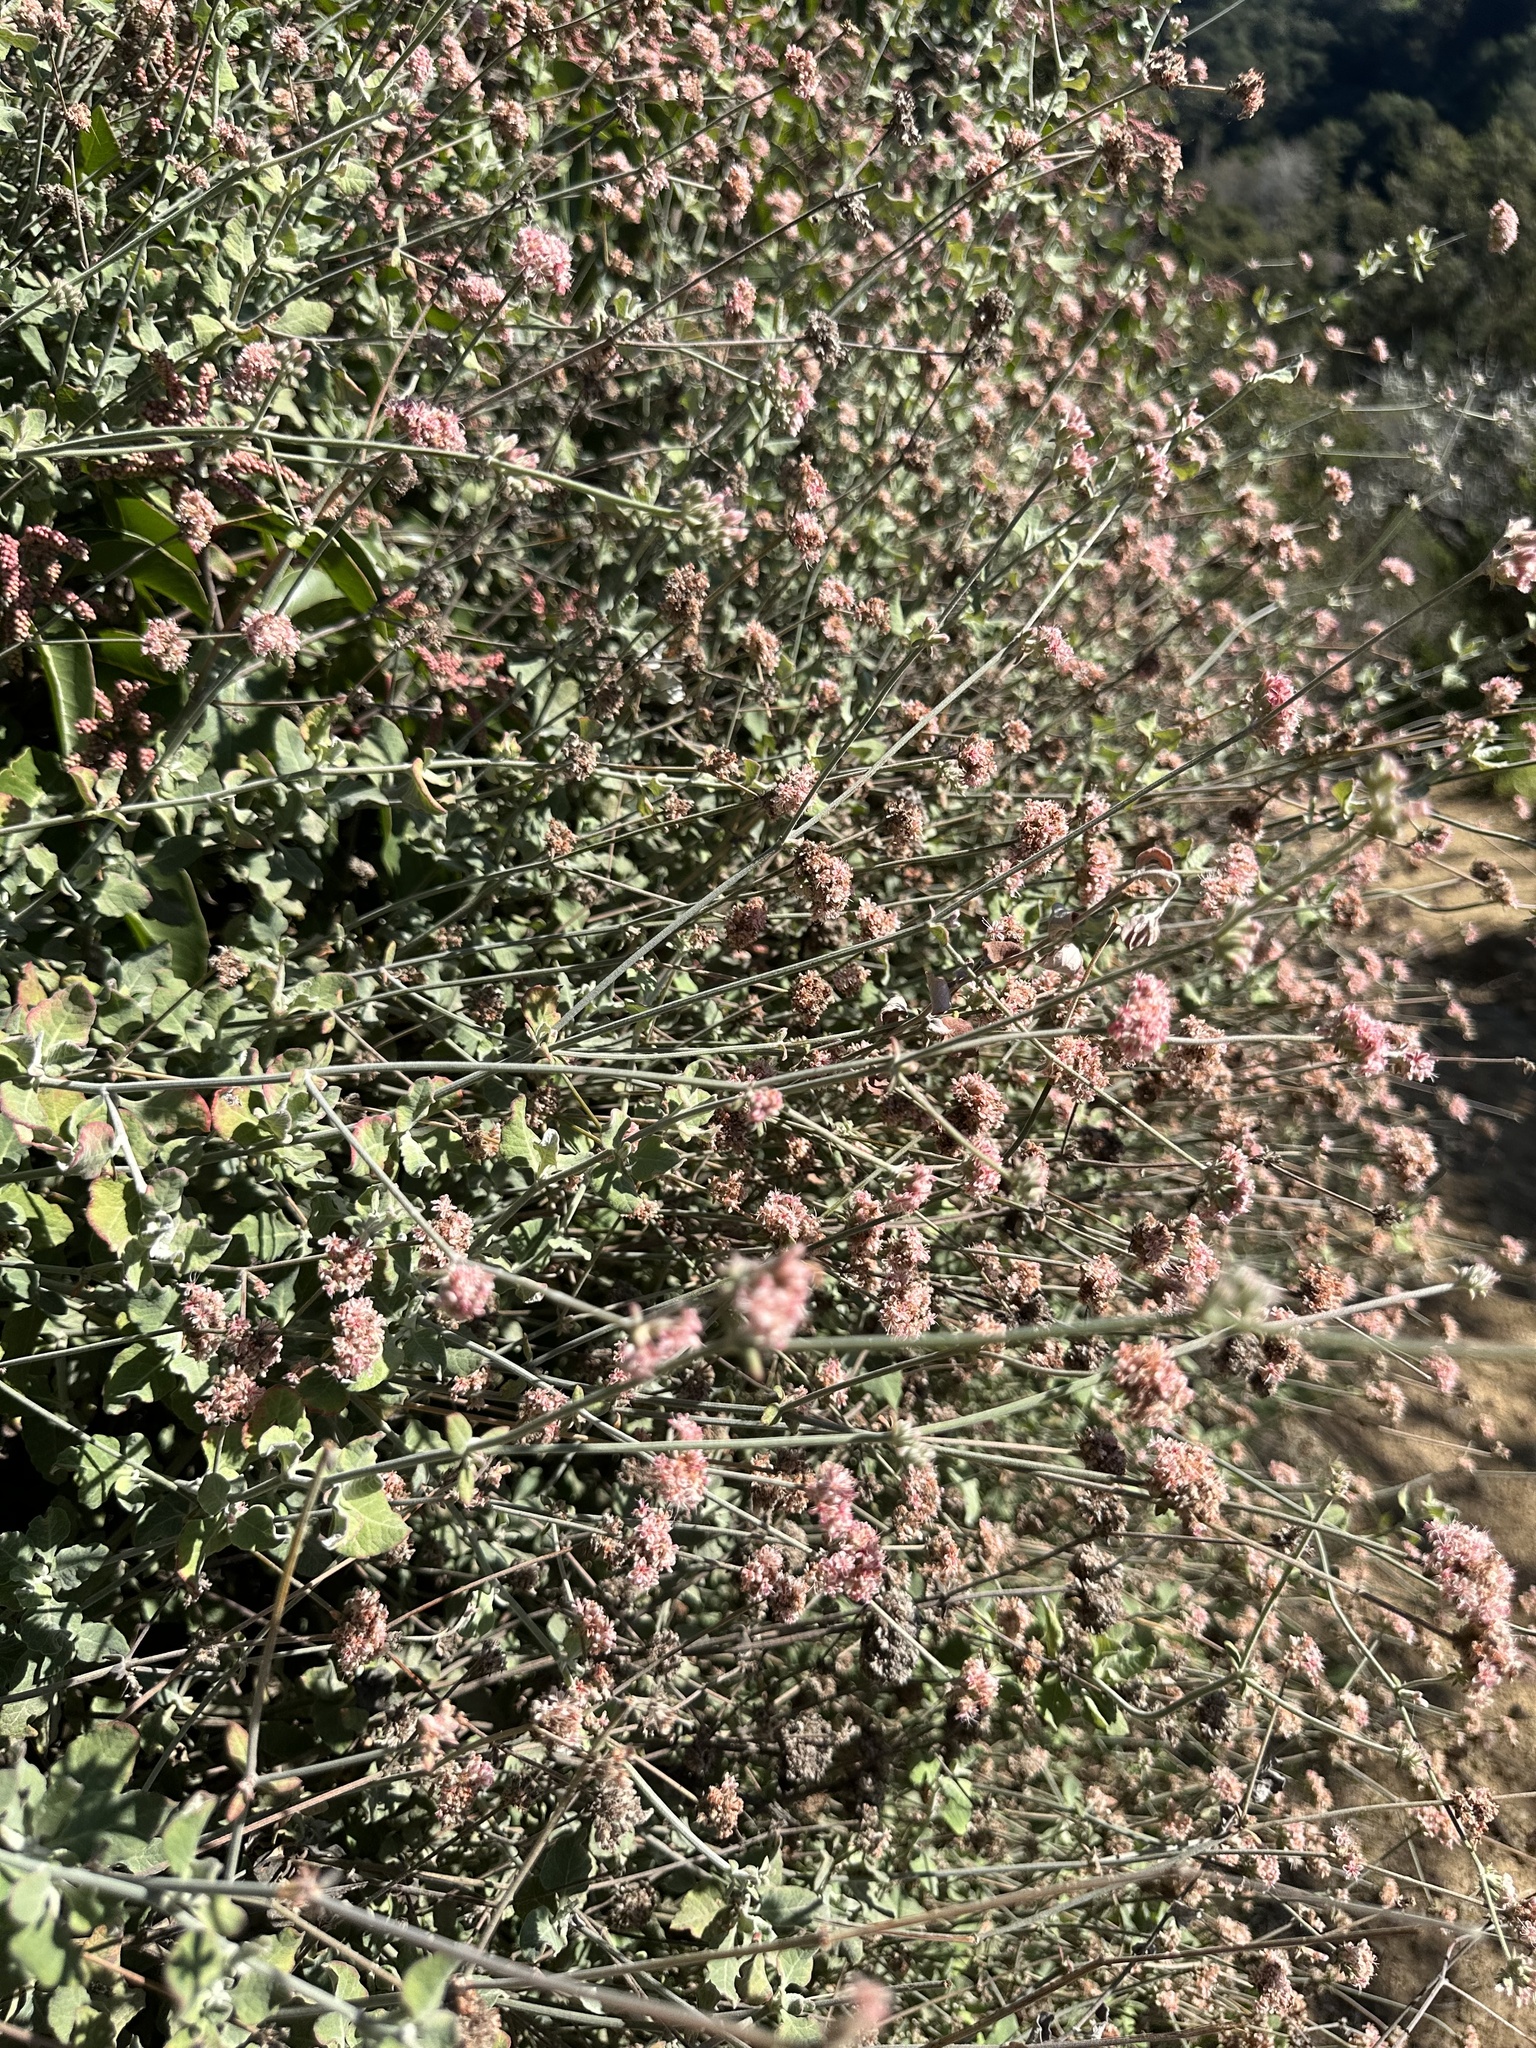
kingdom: Plantae
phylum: Tracheophyta
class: Magnoliopsida
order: Caryophyllales
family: Polygonaceae
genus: Eriogonum
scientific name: Eriogonum cinereum
